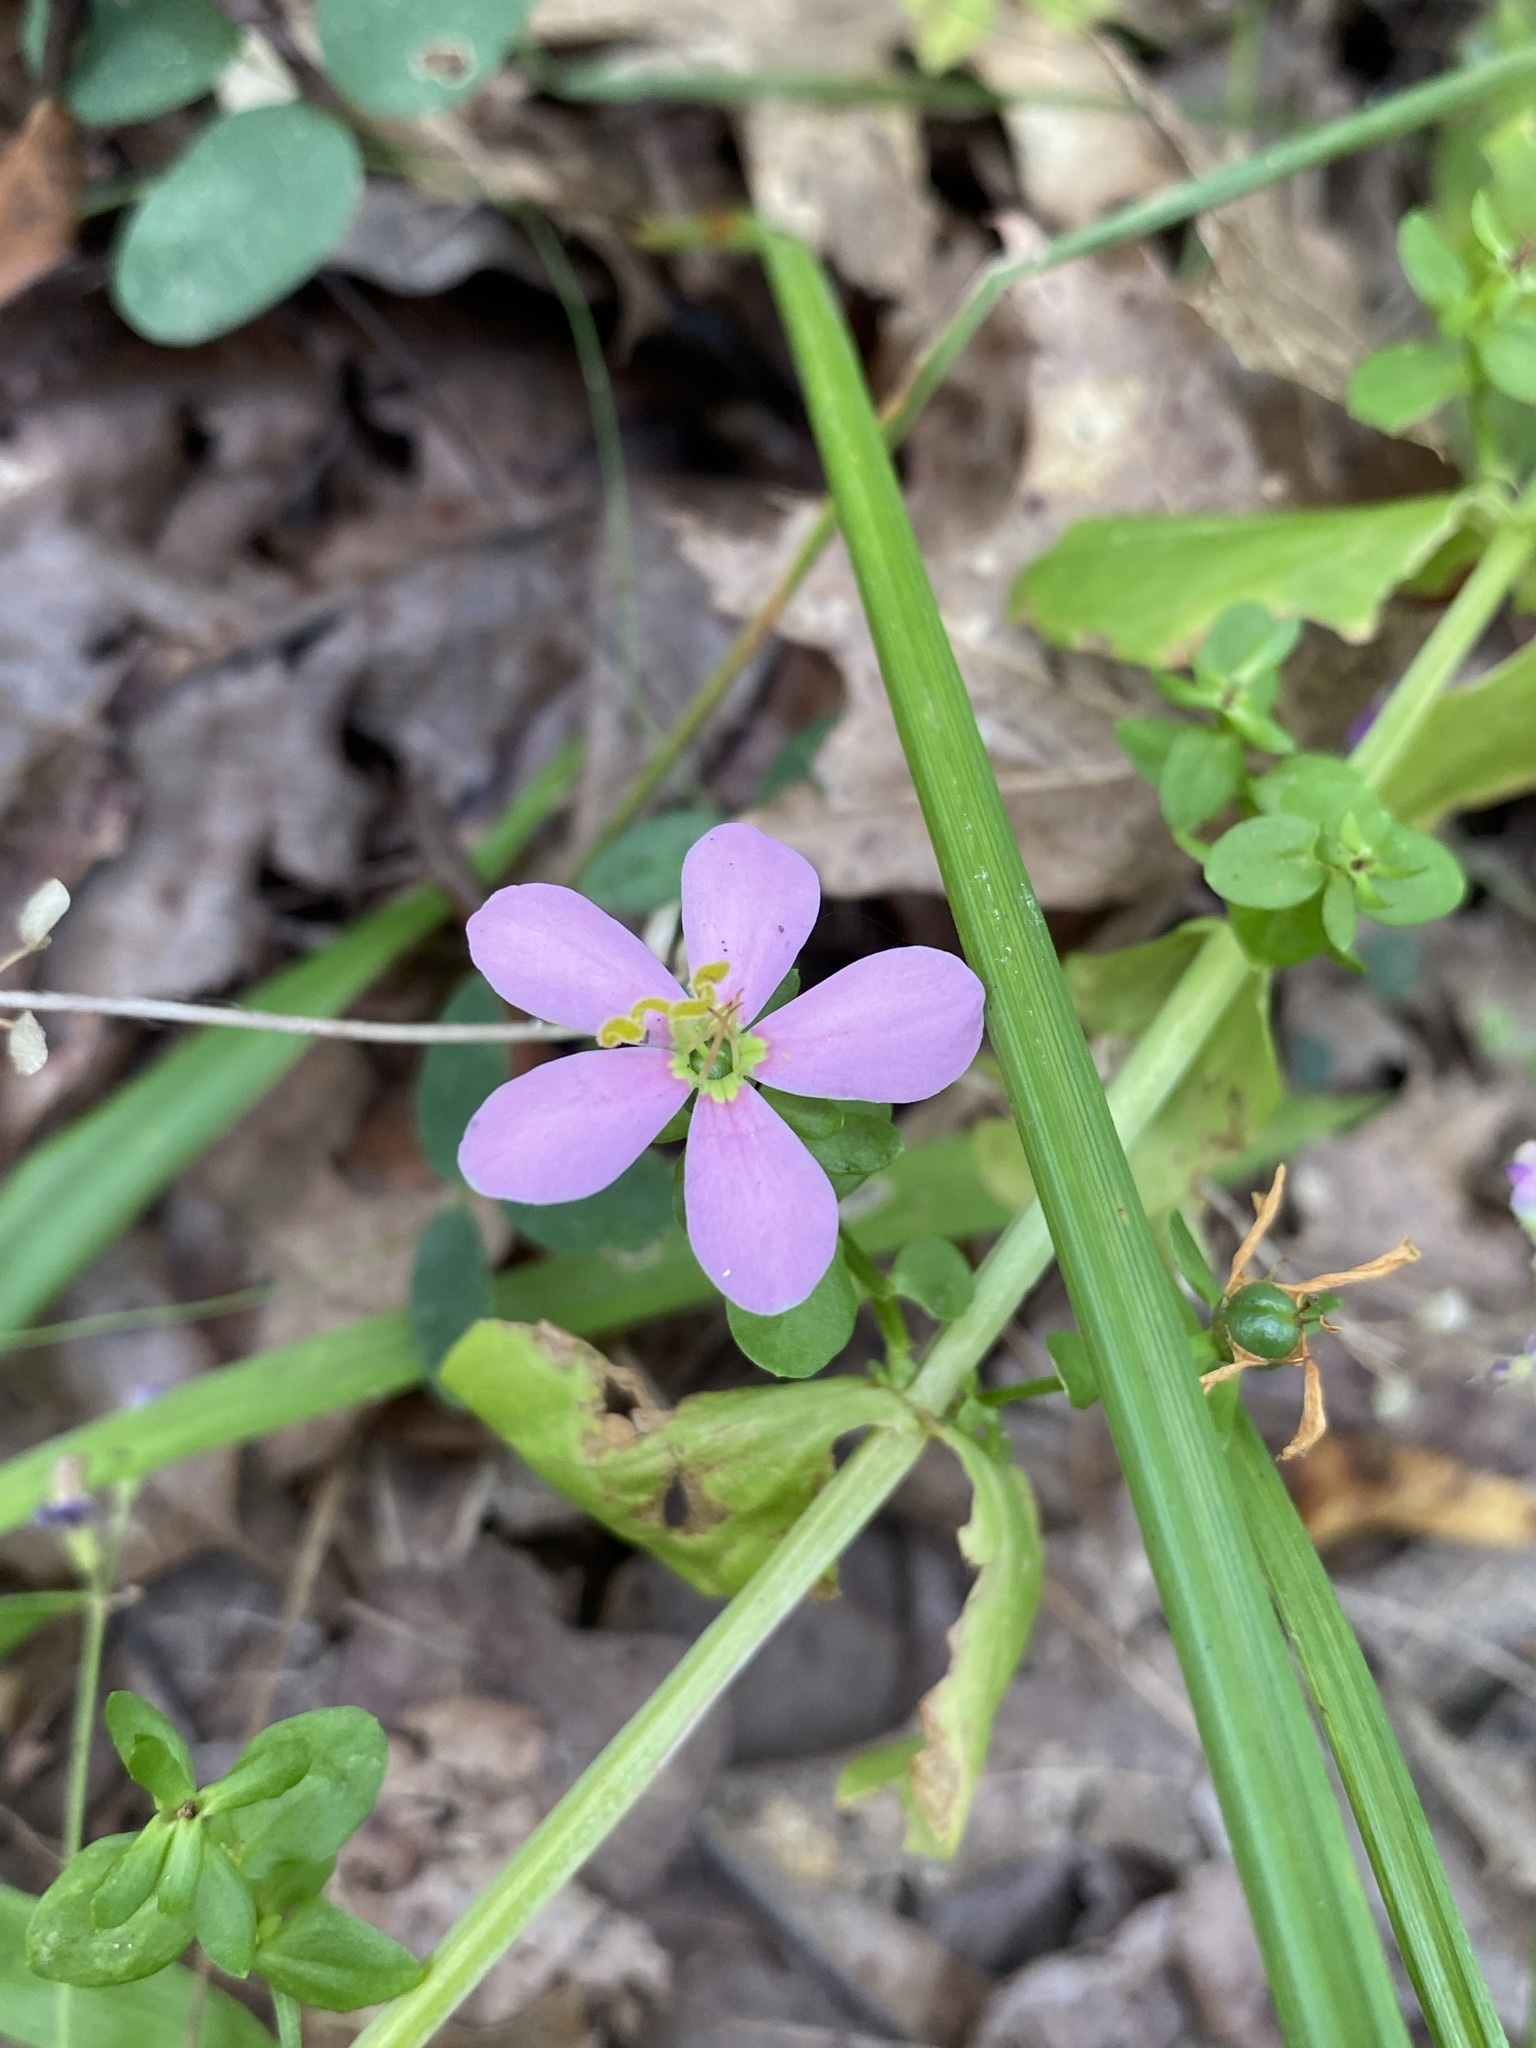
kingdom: Plantae
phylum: Tracheophyta
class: Magnoliopsida
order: Gentianales
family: Gentianaceae
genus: Sabatia
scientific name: Sabatia angularis
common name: Rose-pink
